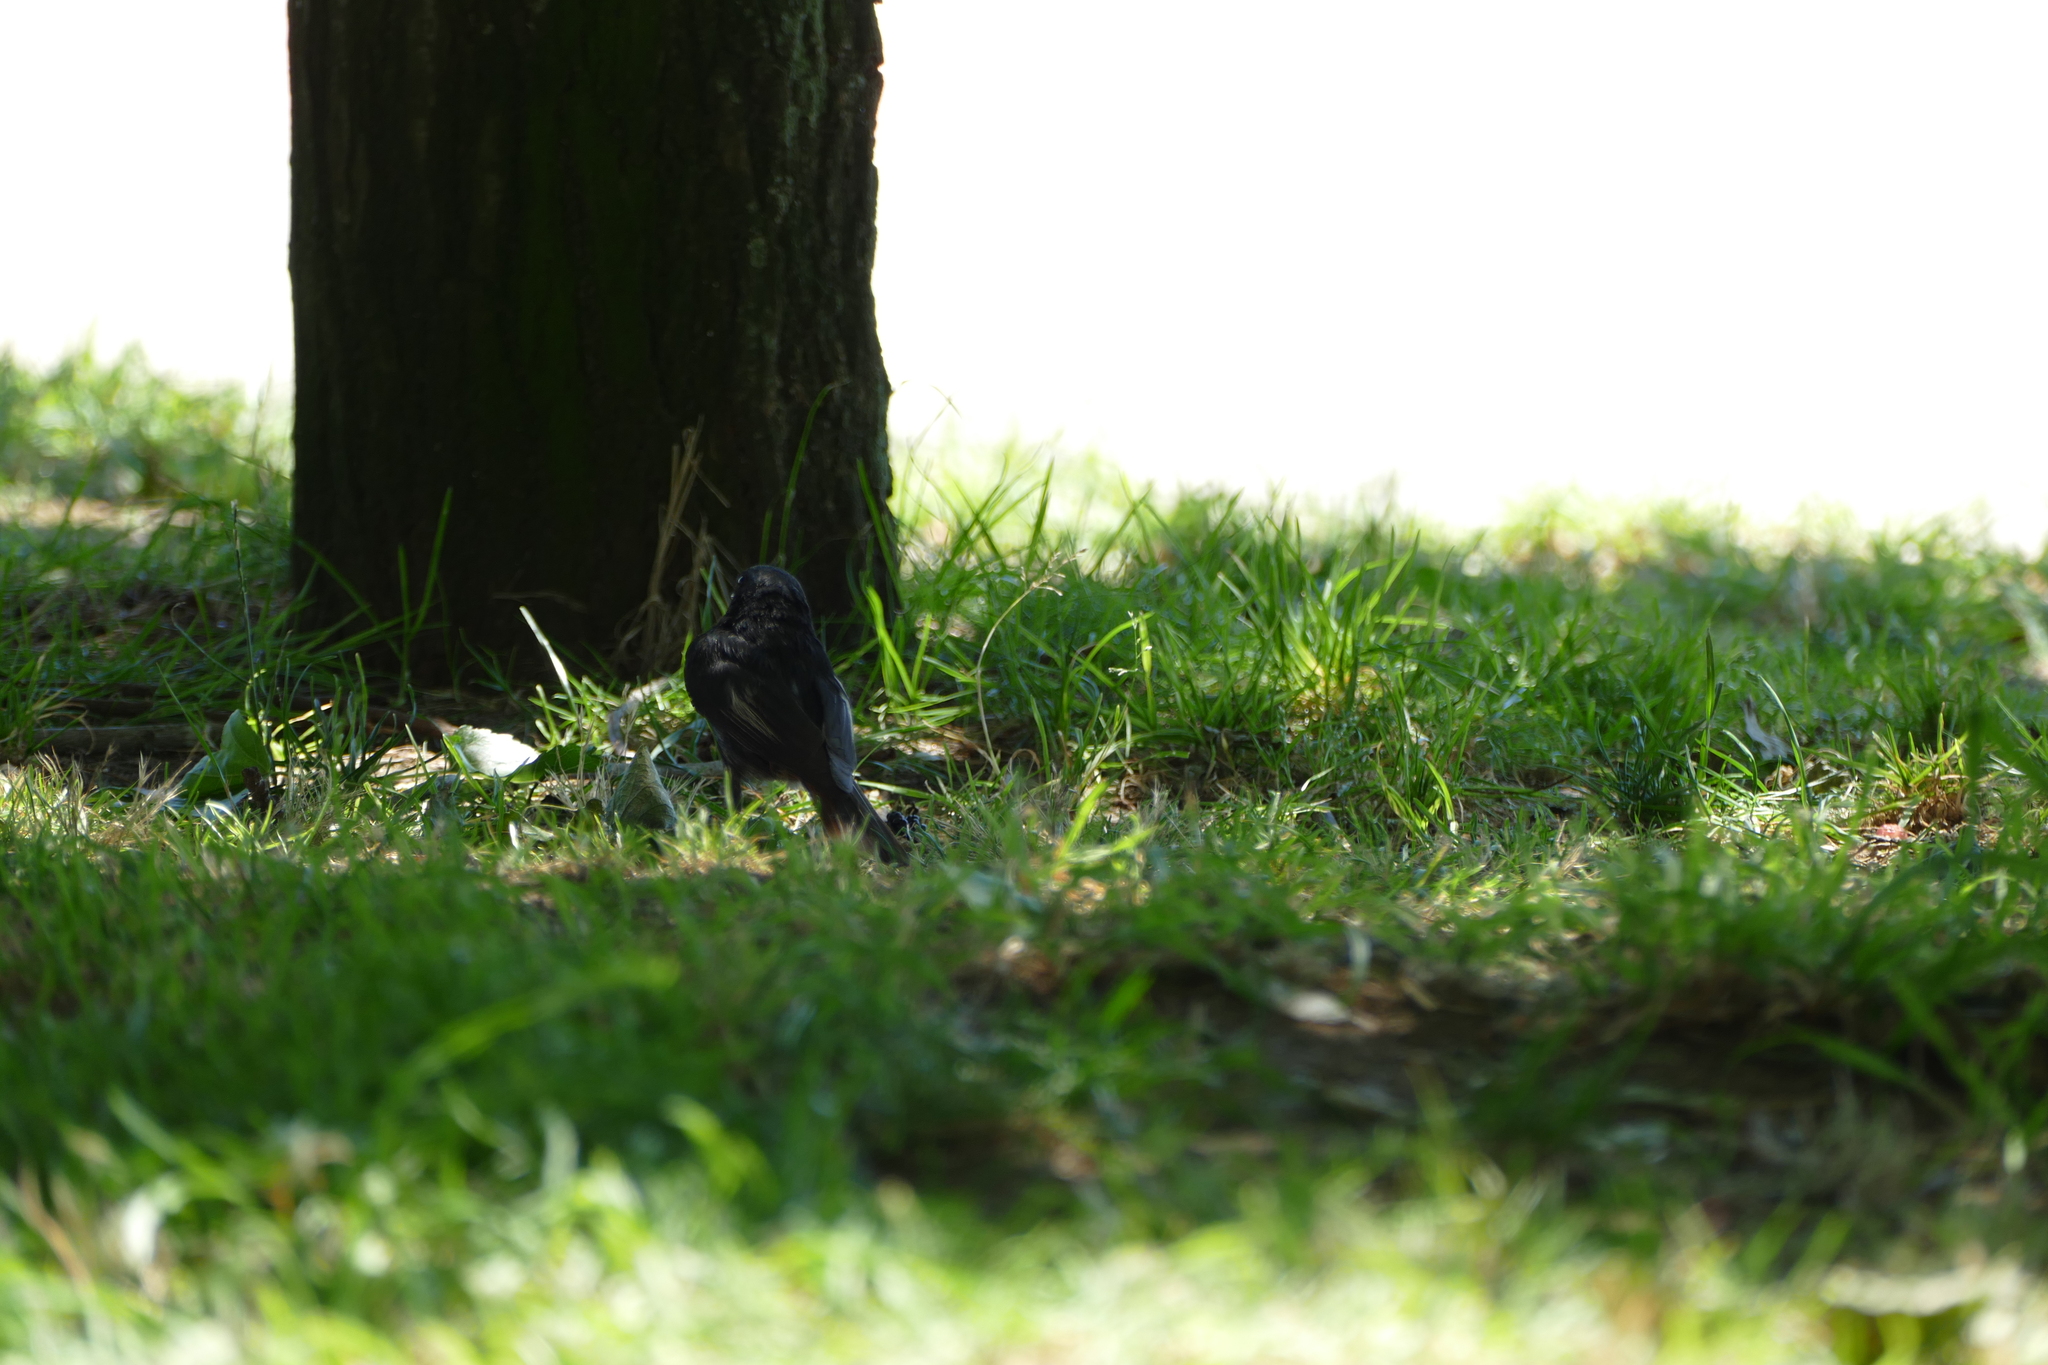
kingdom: Animalia
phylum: Chordata
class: Aves
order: Passeriformes
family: Muscicapidae
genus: Phoenicurus
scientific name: Phoenicurus ochruros
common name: Black redstart
